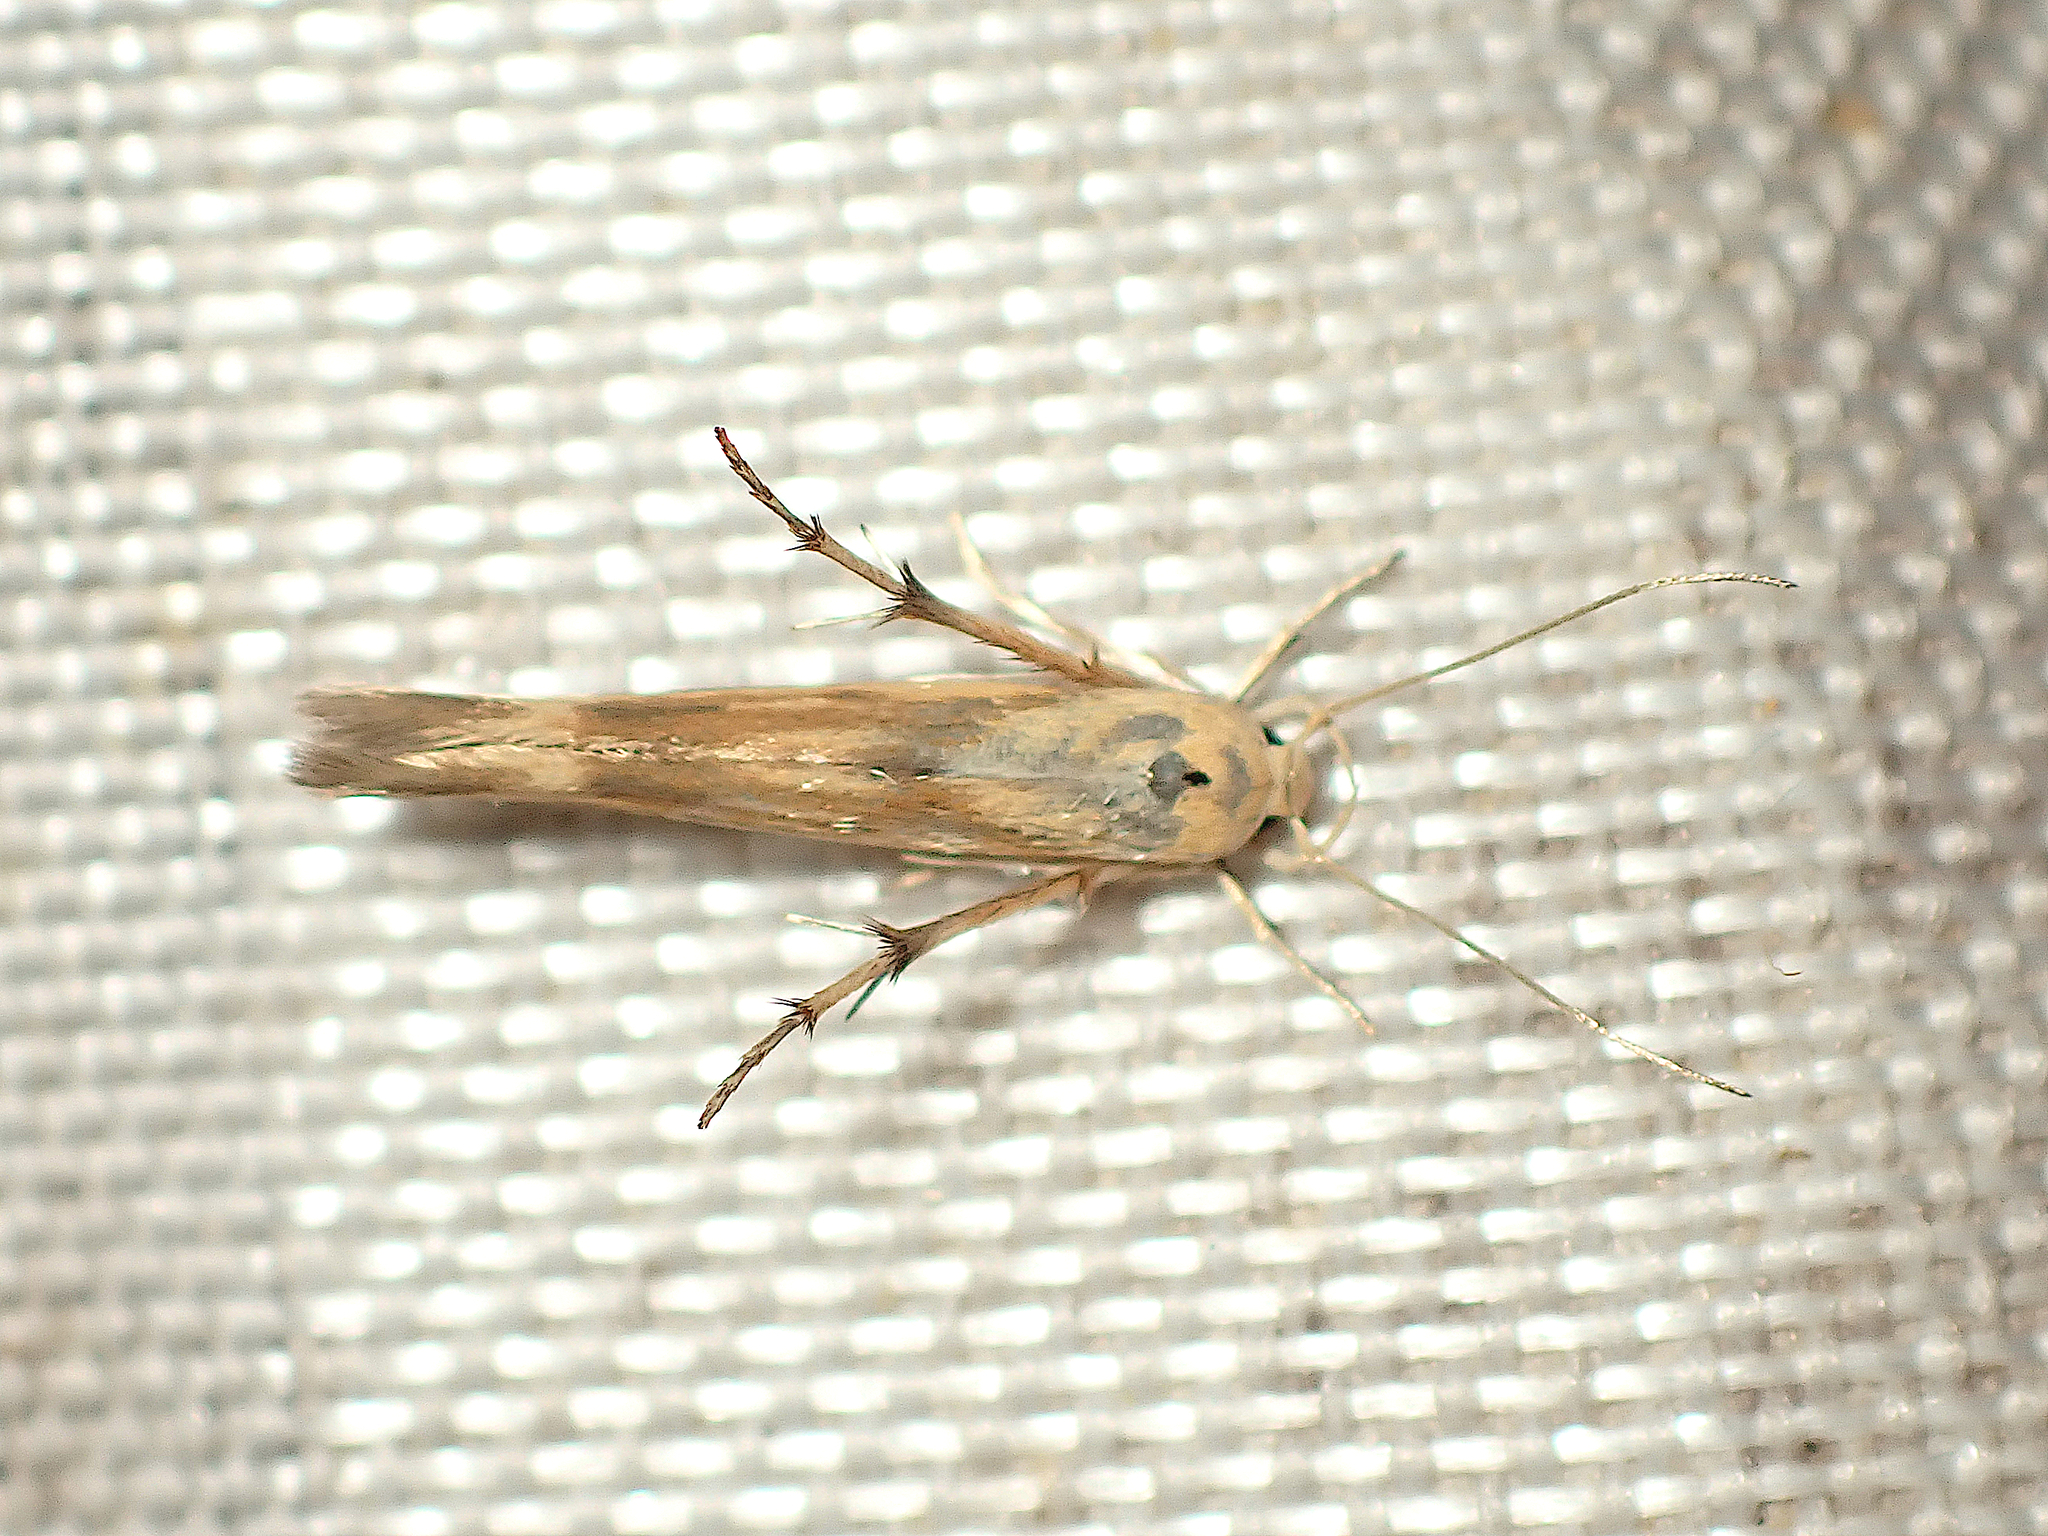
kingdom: Animalia
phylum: Arthropoda
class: Insecta
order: Lepidoptera
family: Stathmopodidae
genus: Stathmopoda
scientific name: Stathmopoda aposema
